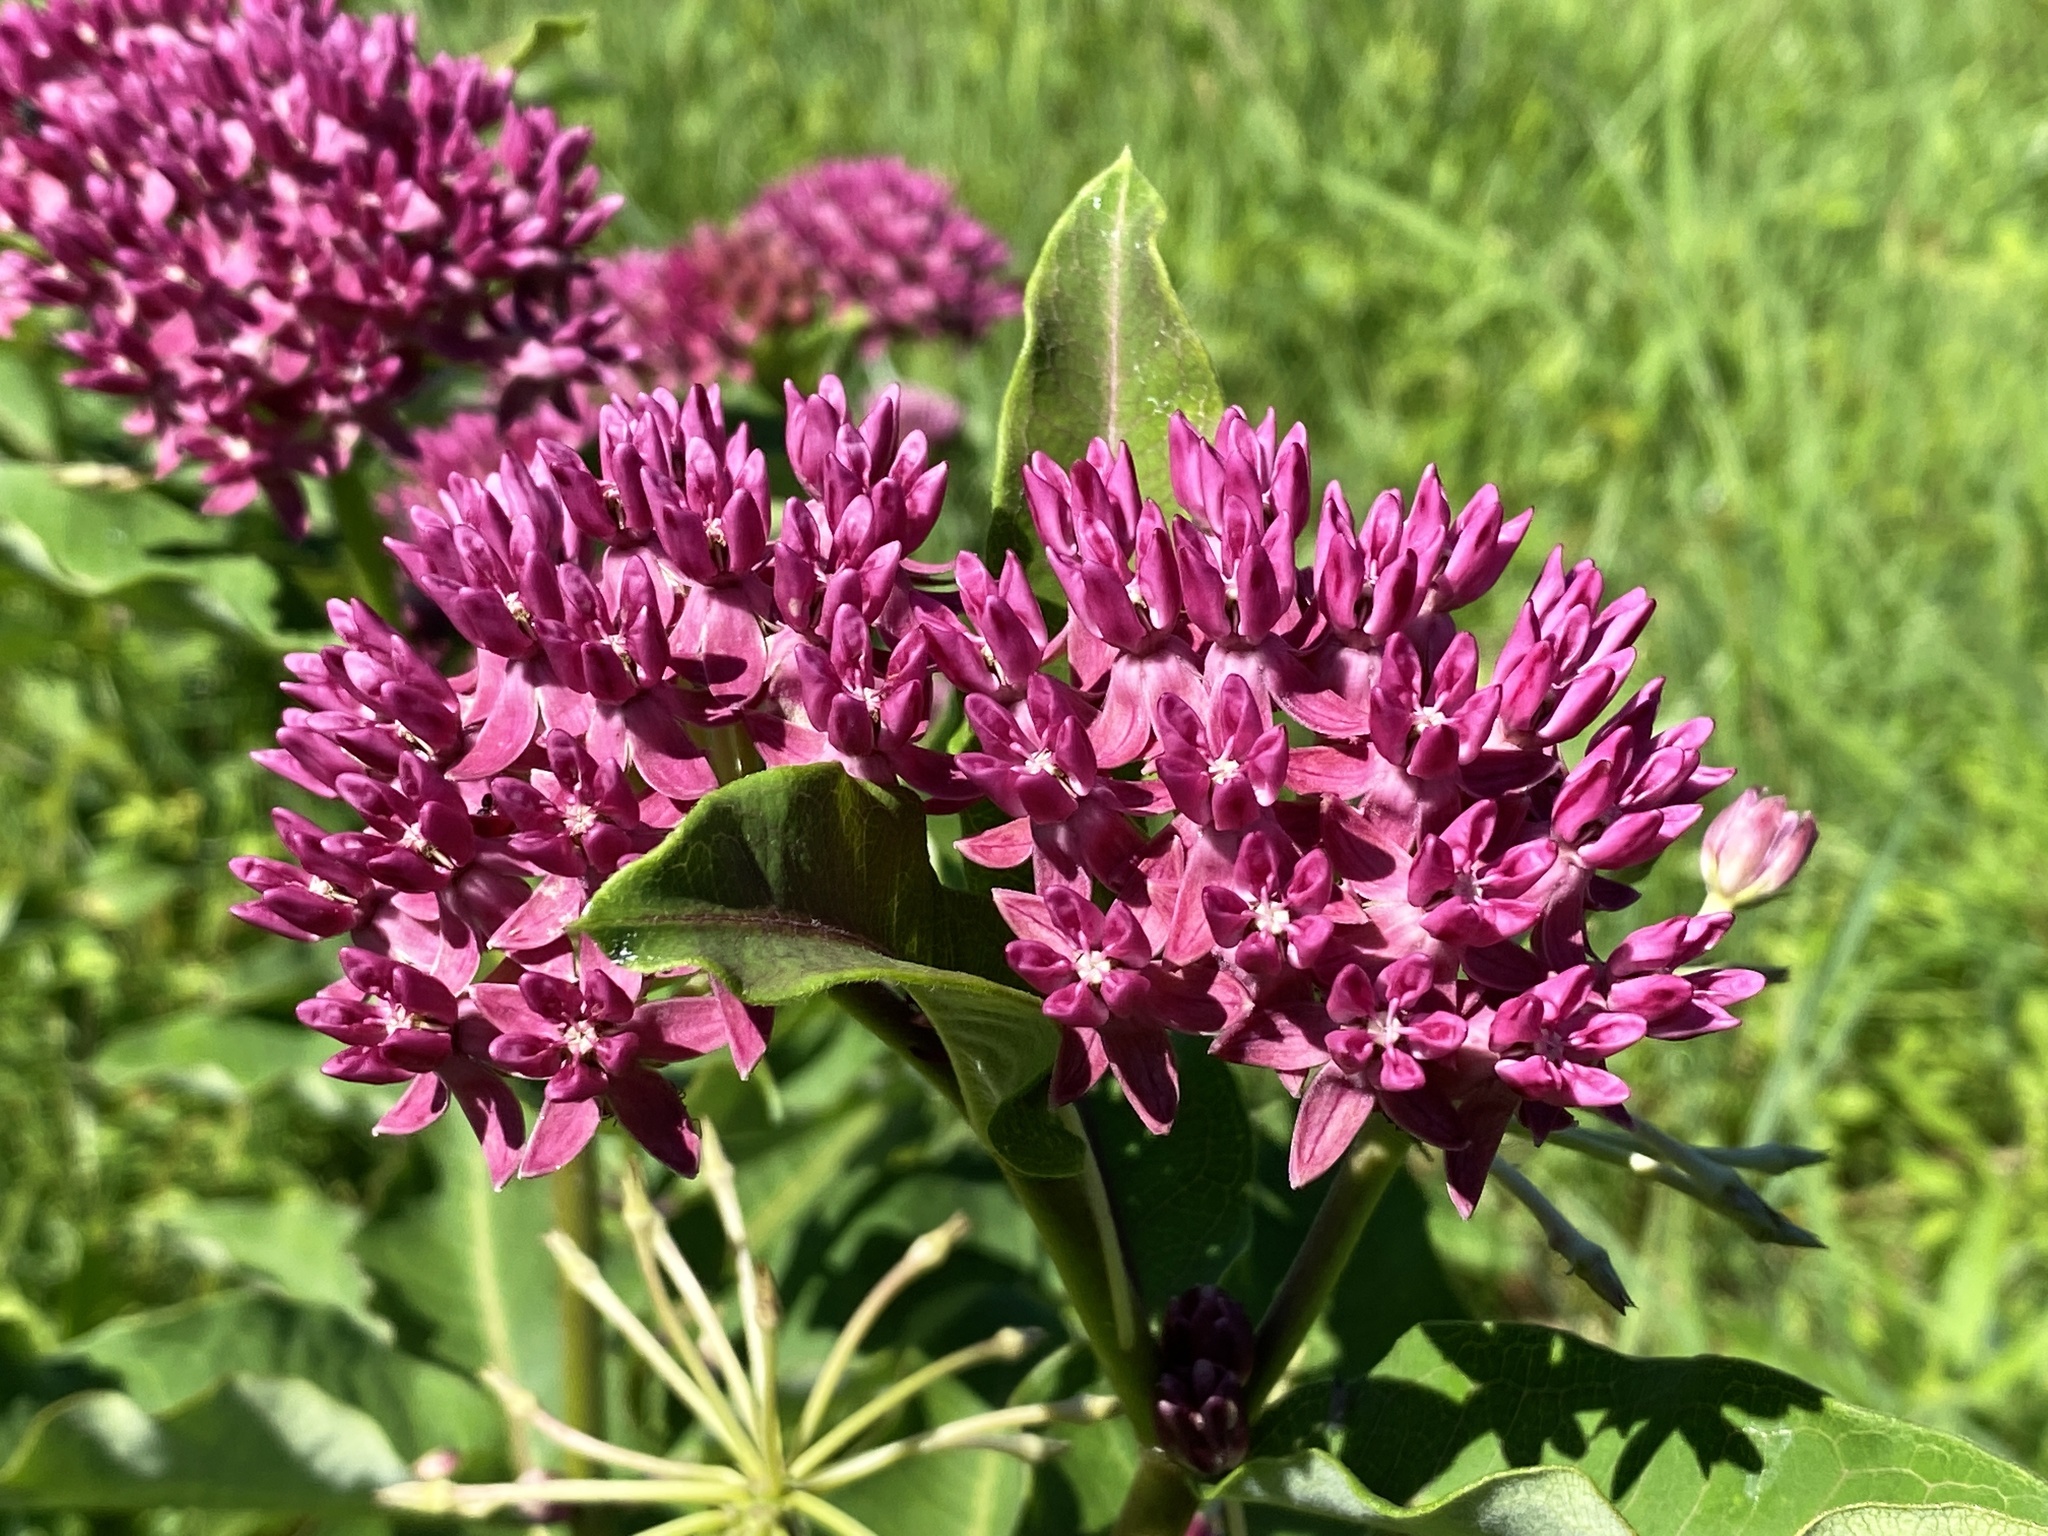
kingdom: Plantae
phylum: Tracheophyta
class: Magnoliopsida
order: Gentianales
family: Apocynaceae
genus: Asclepias
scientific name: Asclepias purpurascens
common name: Purple milkweed
